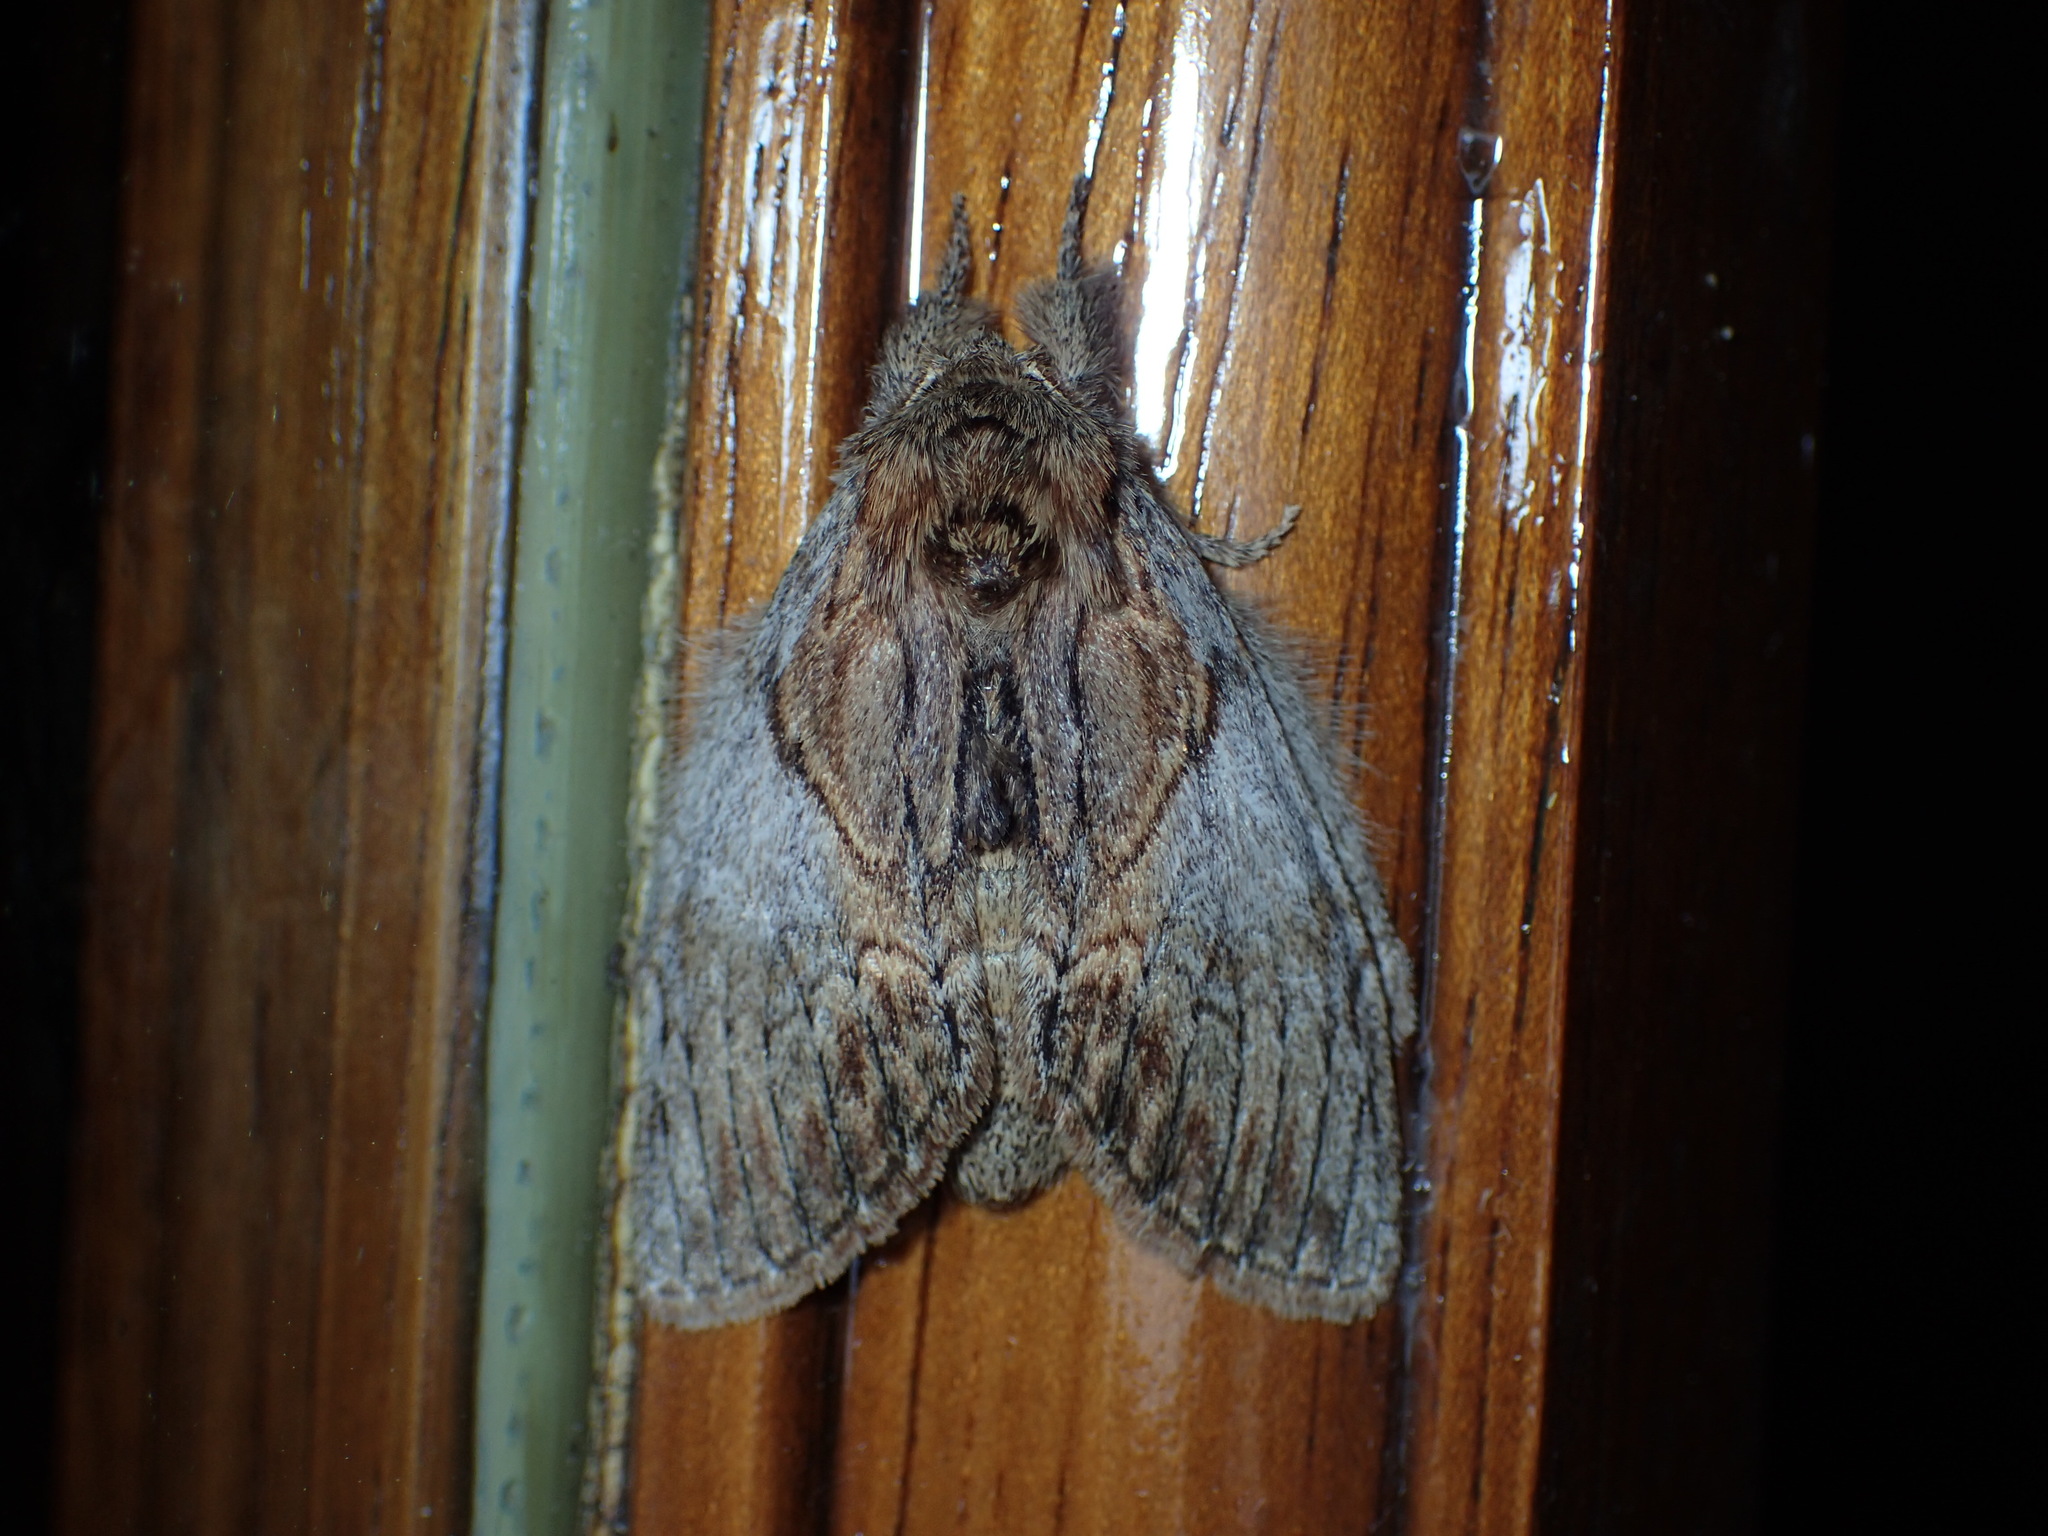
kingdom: Animalia
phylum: Arthropoda
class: Insecta
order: Lepidoptera
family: Notodontidae
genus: Peridea
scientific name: Peridea basitriens
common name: Oval-based prominent
